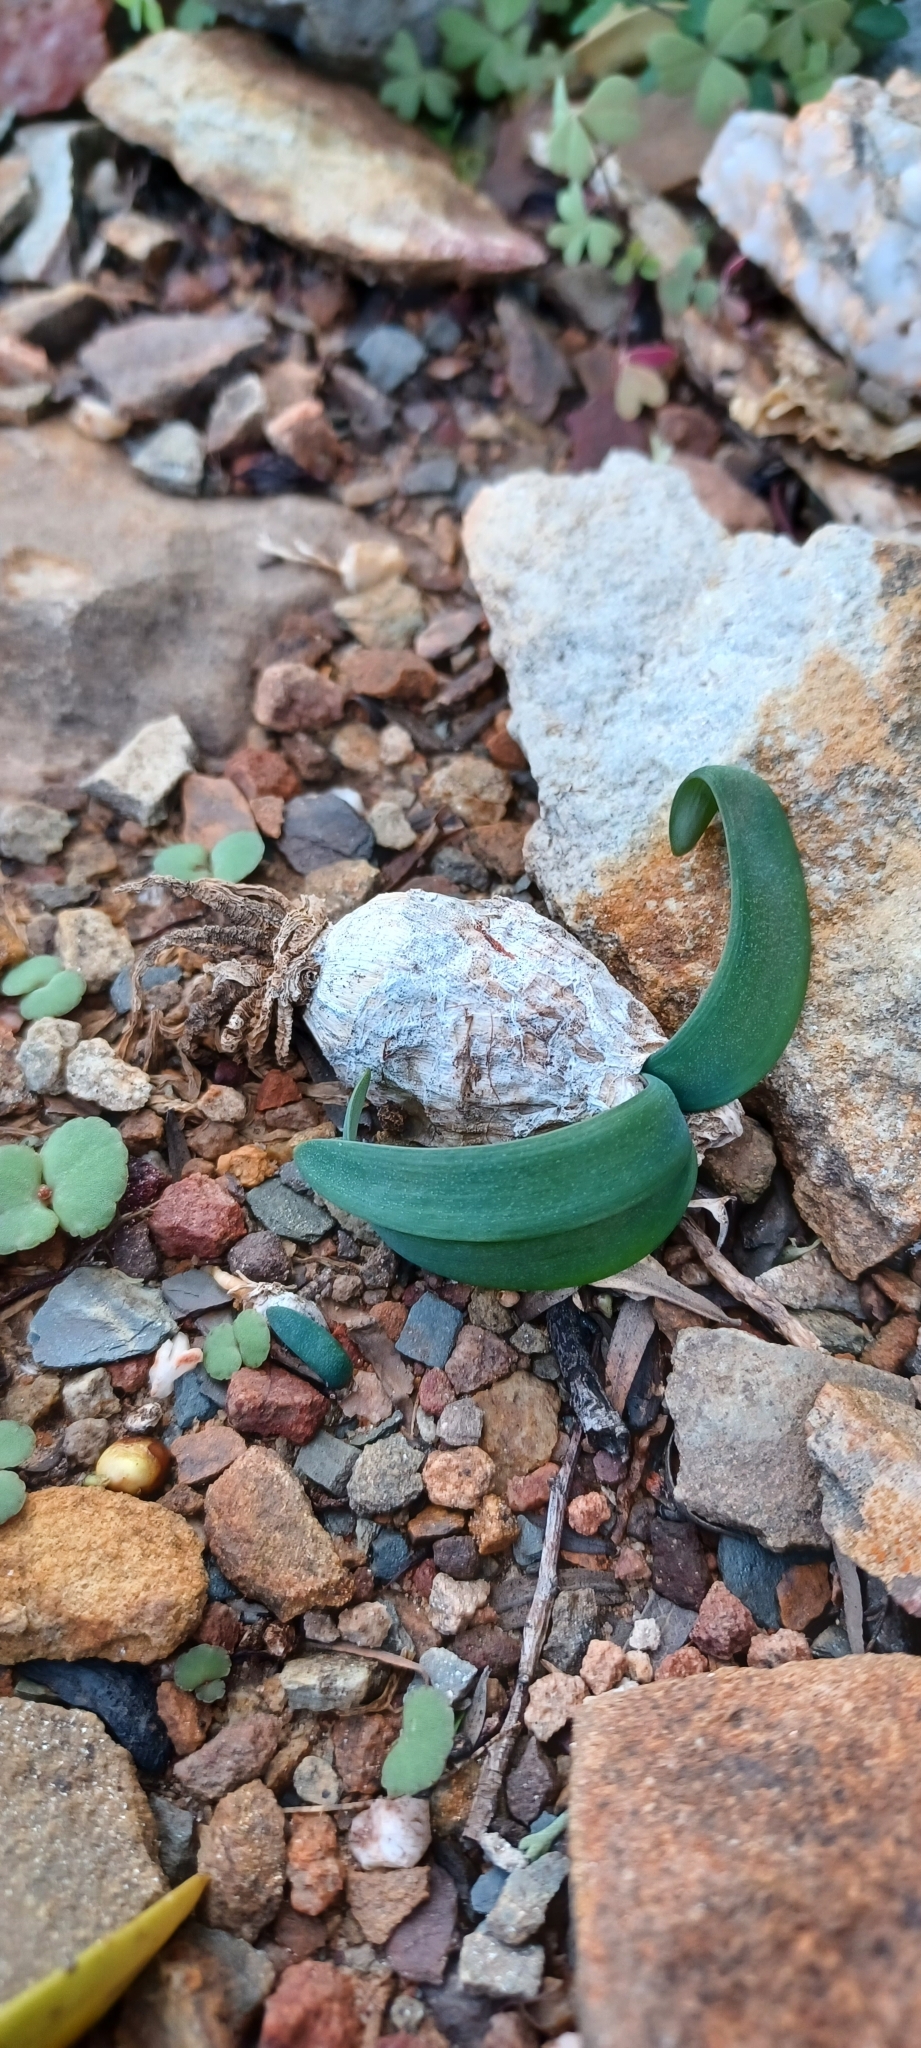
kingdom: Plantae
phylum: Tracheophyta
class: Liliopsida
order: Asparagales
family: Amaryllidaceae
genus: Nerine
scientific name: Nerine humilis
